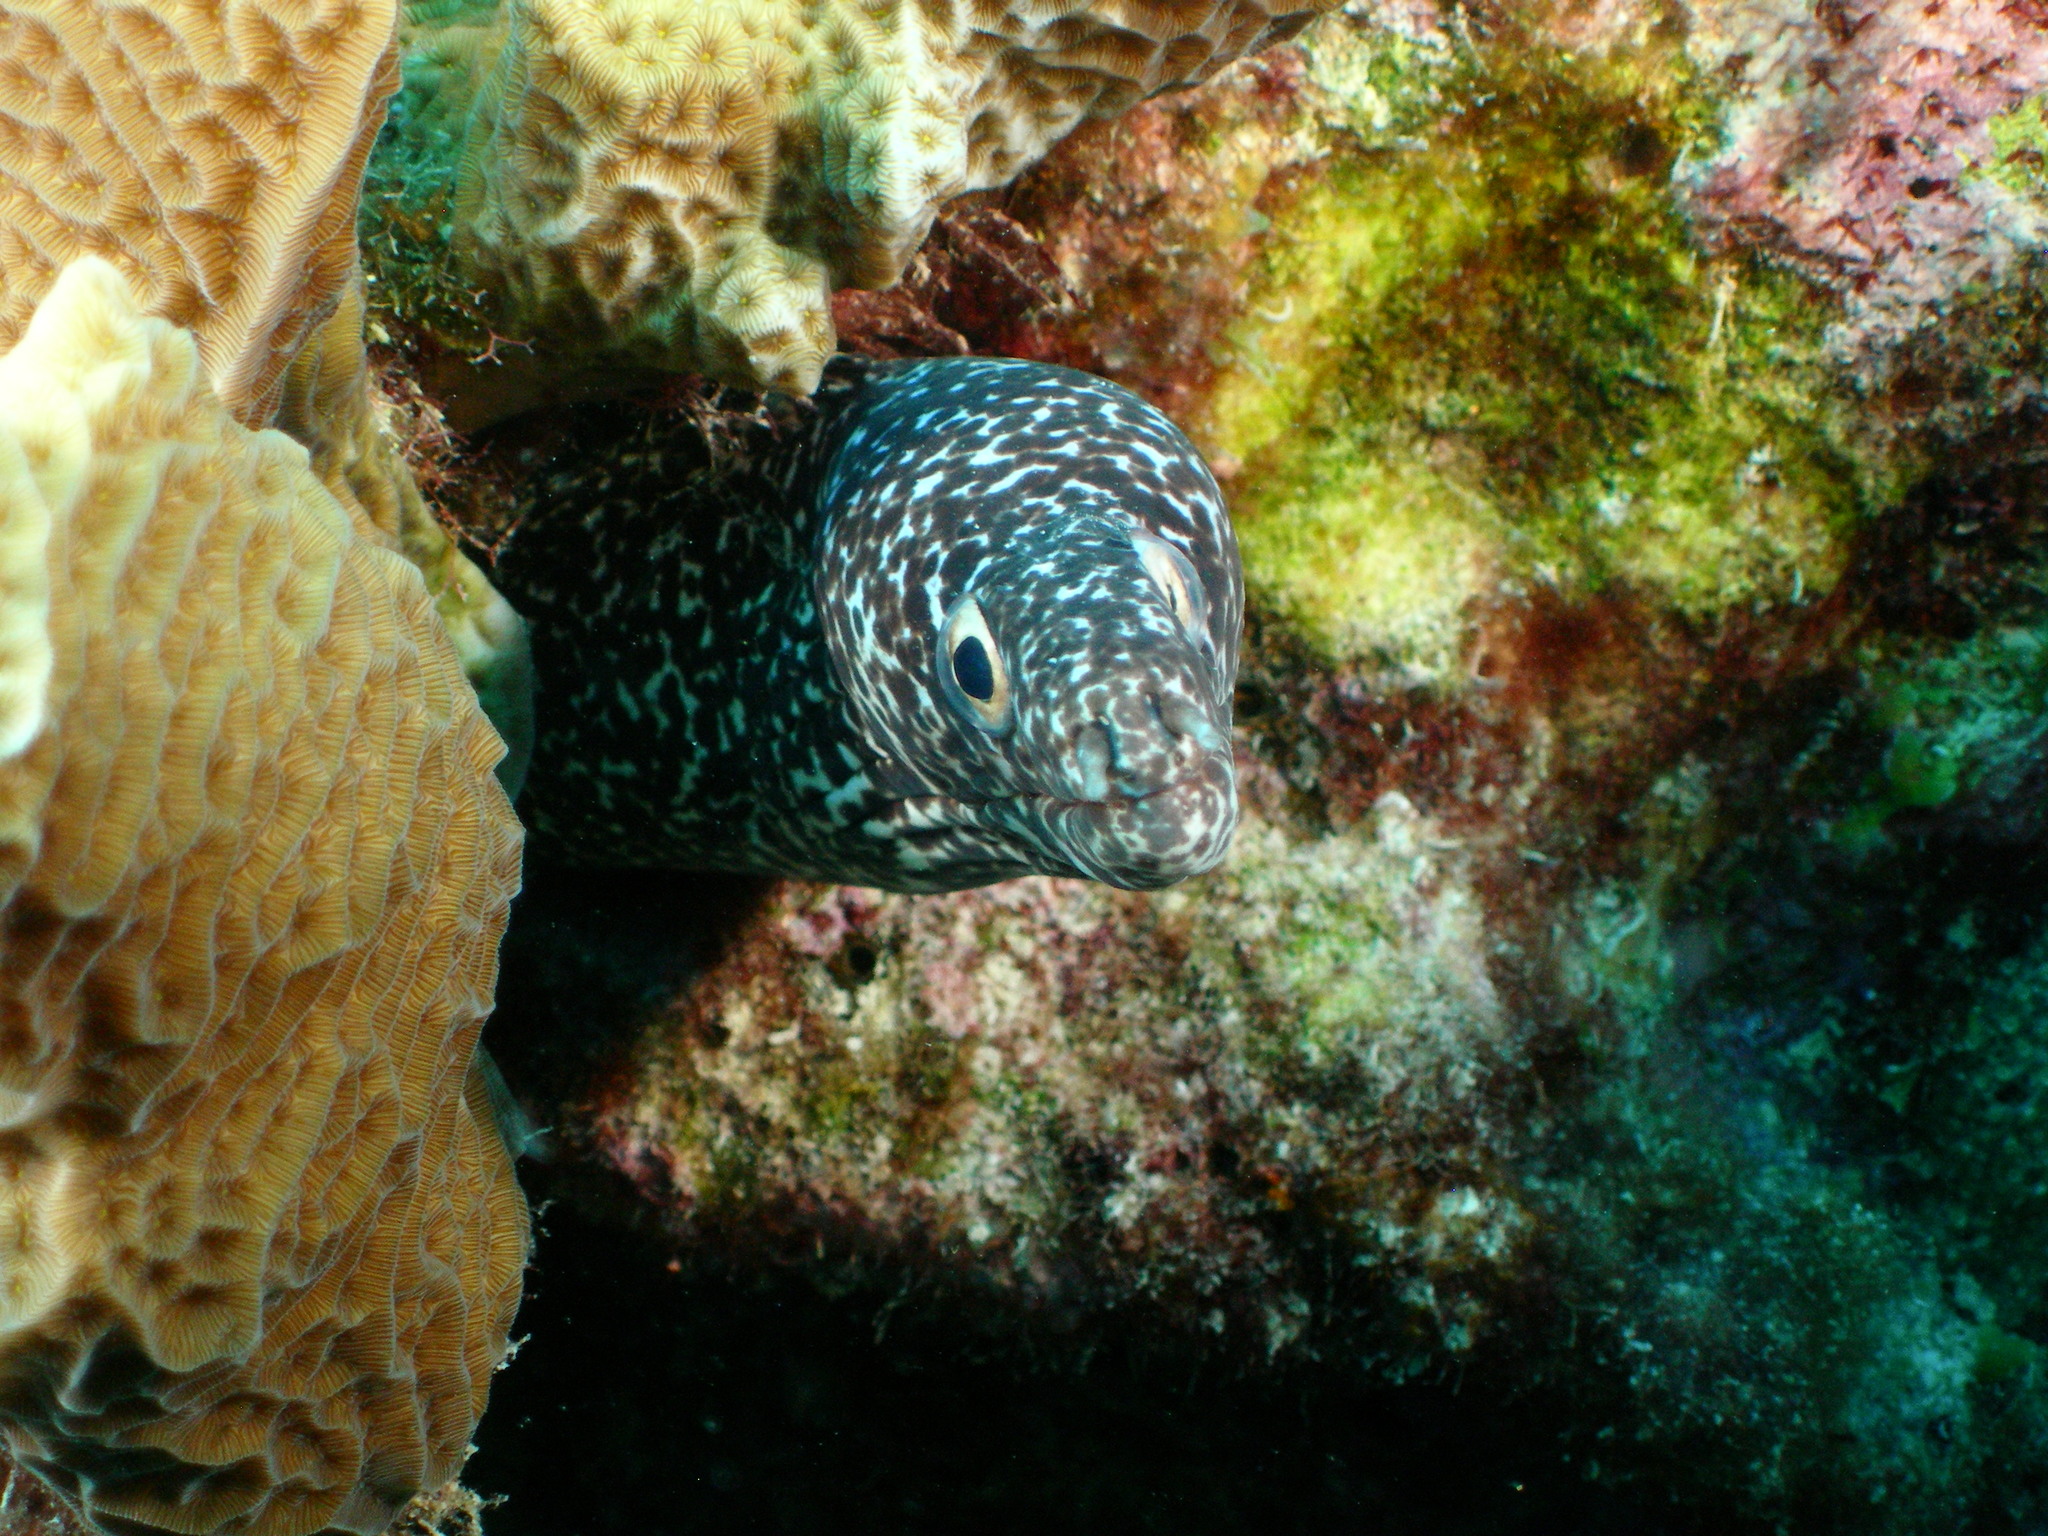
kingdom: Animalia
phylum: Chordata
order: Anguilliformes
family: Muraenidae
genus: Gymnothorax
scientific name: Gymnothorax moringa
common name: Spotted moray
